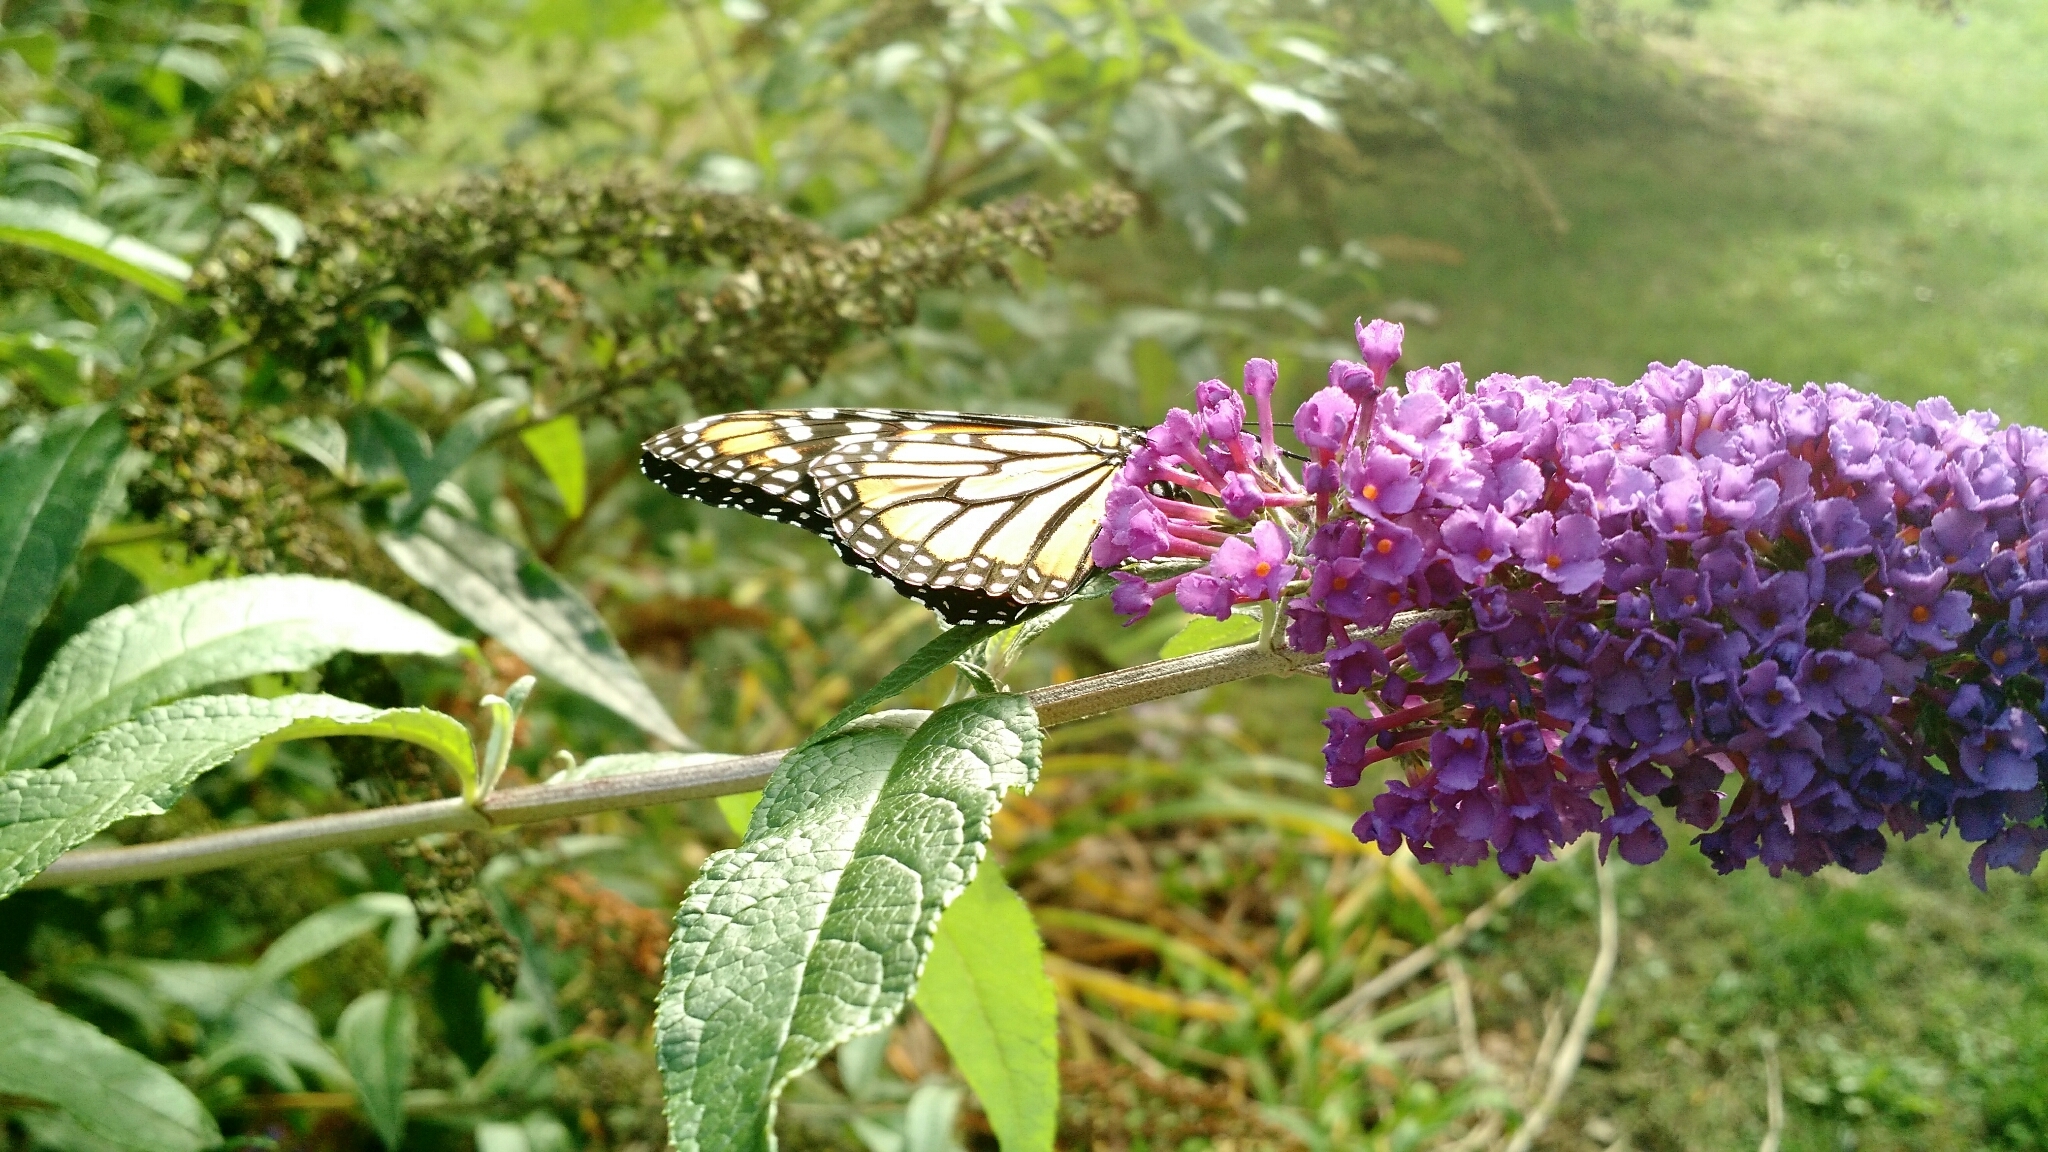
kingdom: Animalia
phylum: Arthropoda
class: Insecta
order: Lepidoptera
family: Nymphalidae
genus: Danaus
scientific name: Danaus plexippus
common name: Monarch
